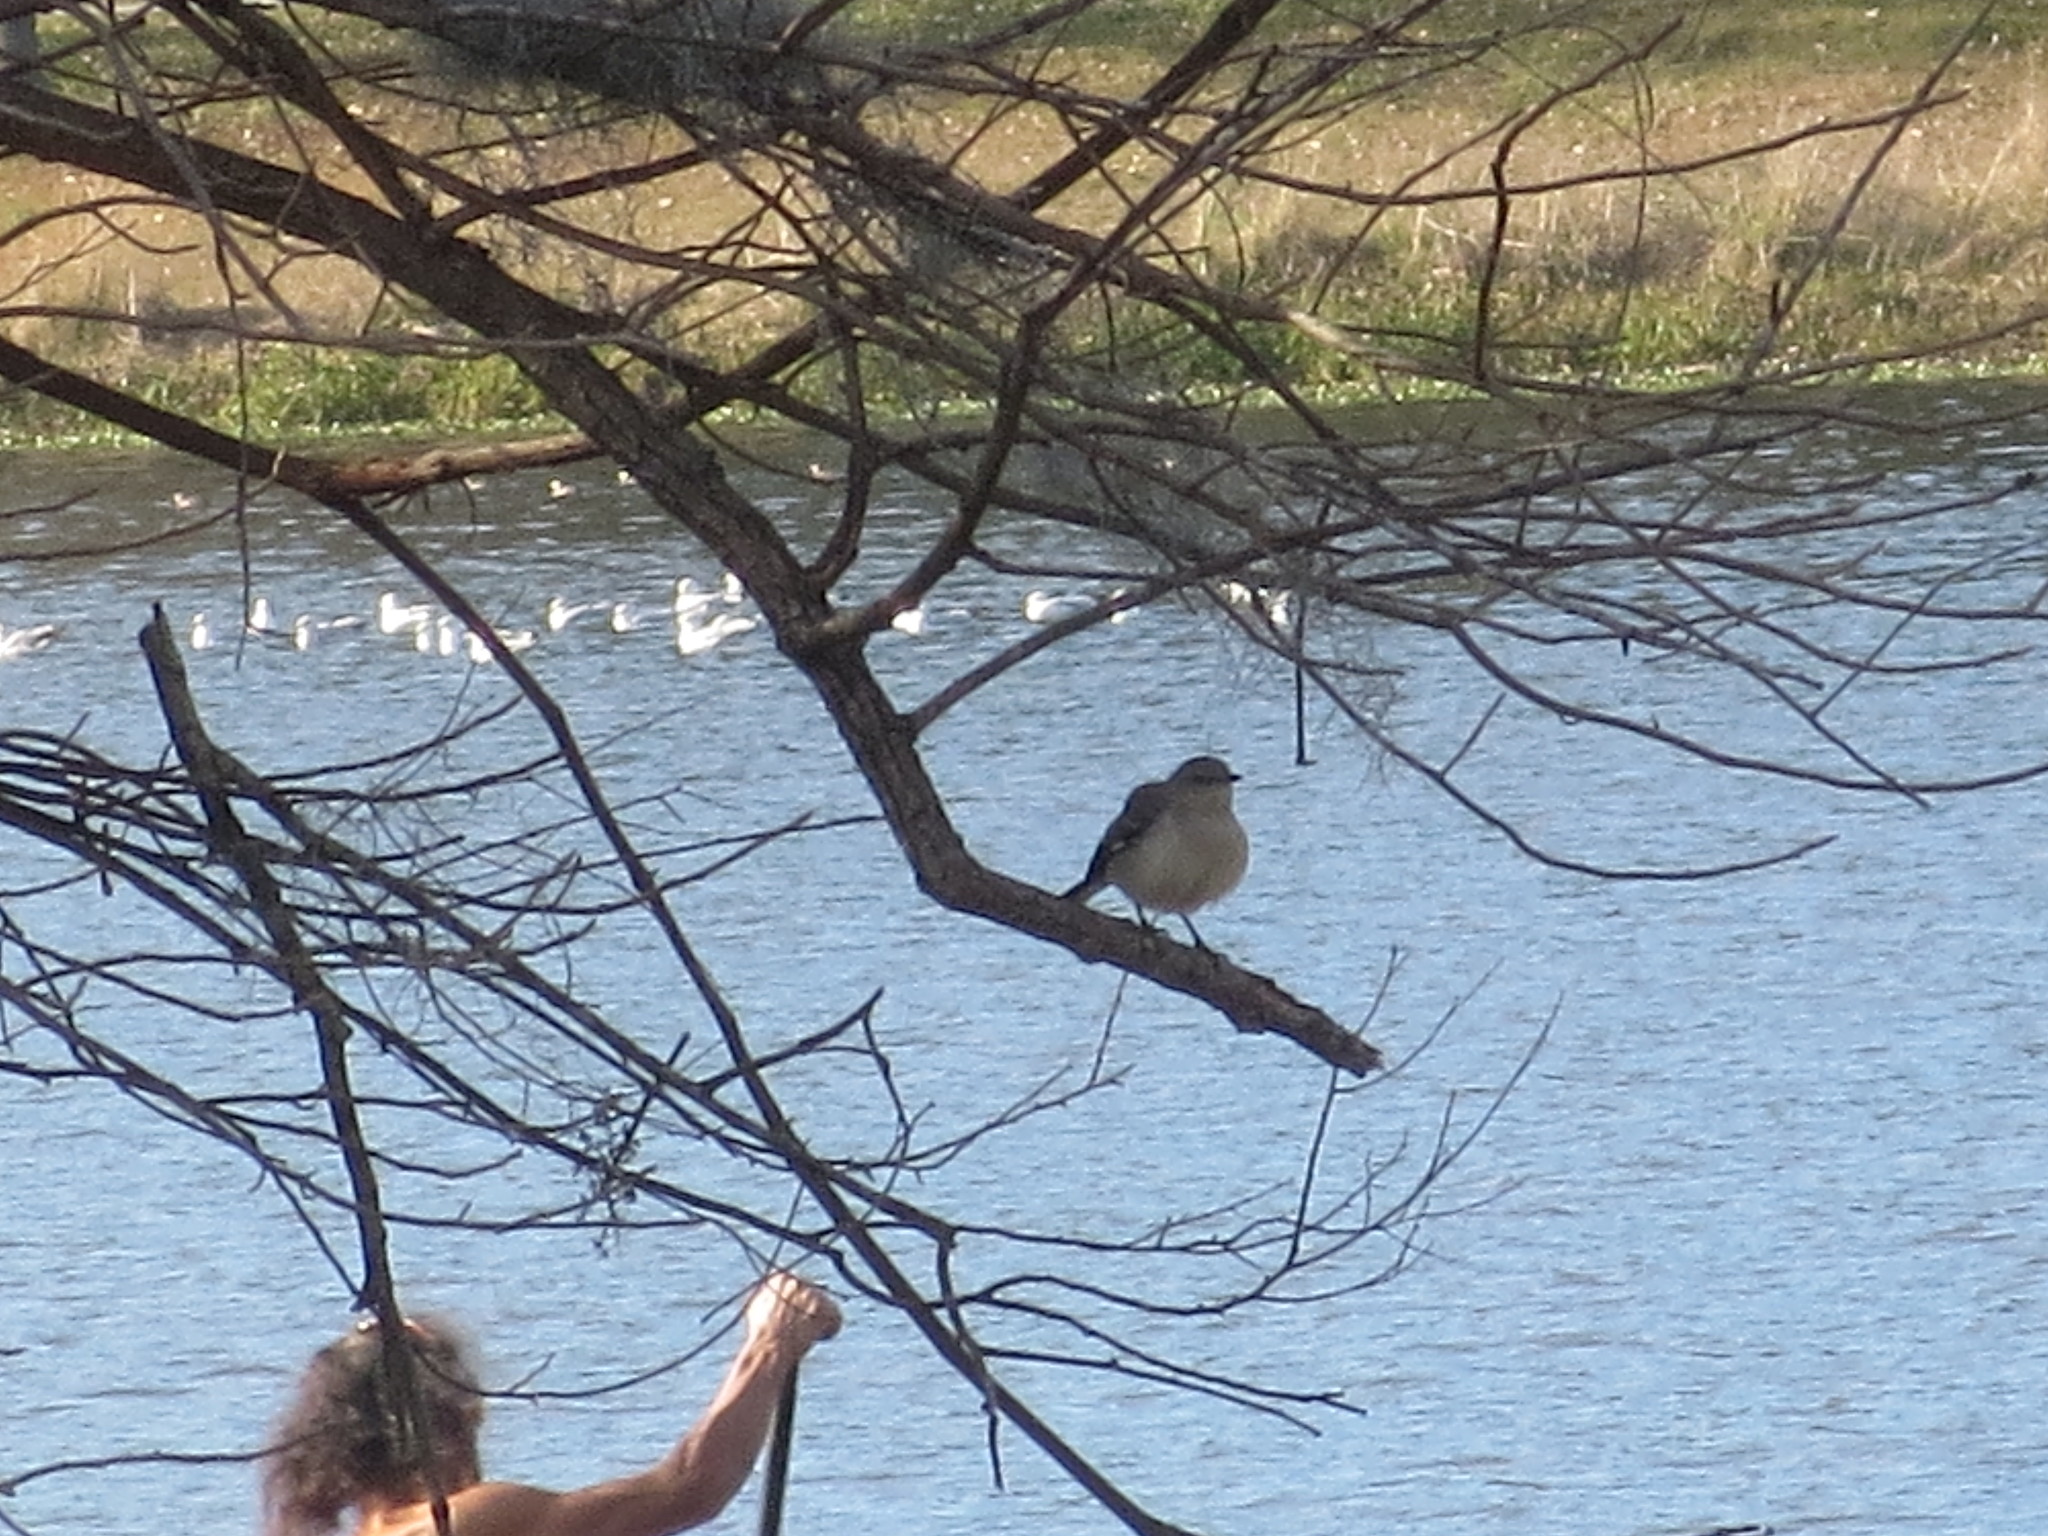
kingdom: Animalia
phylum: Chordata
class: Aves
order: Passeriformes
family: Mimidae
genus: Mimus
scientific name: Mimus polyglottos
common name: Northern mockingbird
